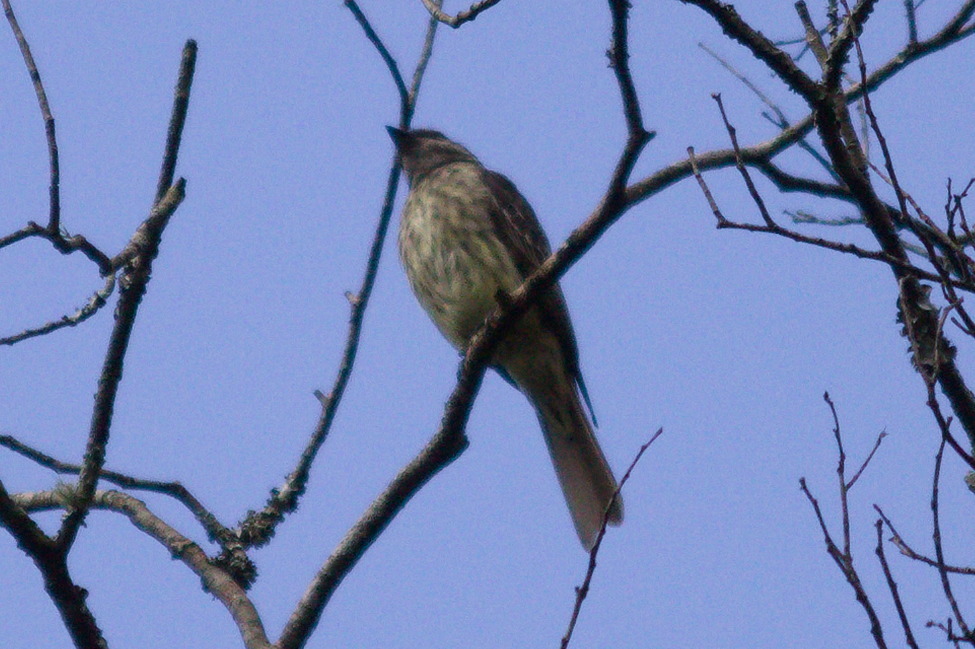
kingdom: Animalia
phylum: Chordata
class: Aves
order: Passeriformes
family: Tyrannidae
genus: Empidonomus
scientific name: Empidonomus varius
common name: Variegated flycatcher
